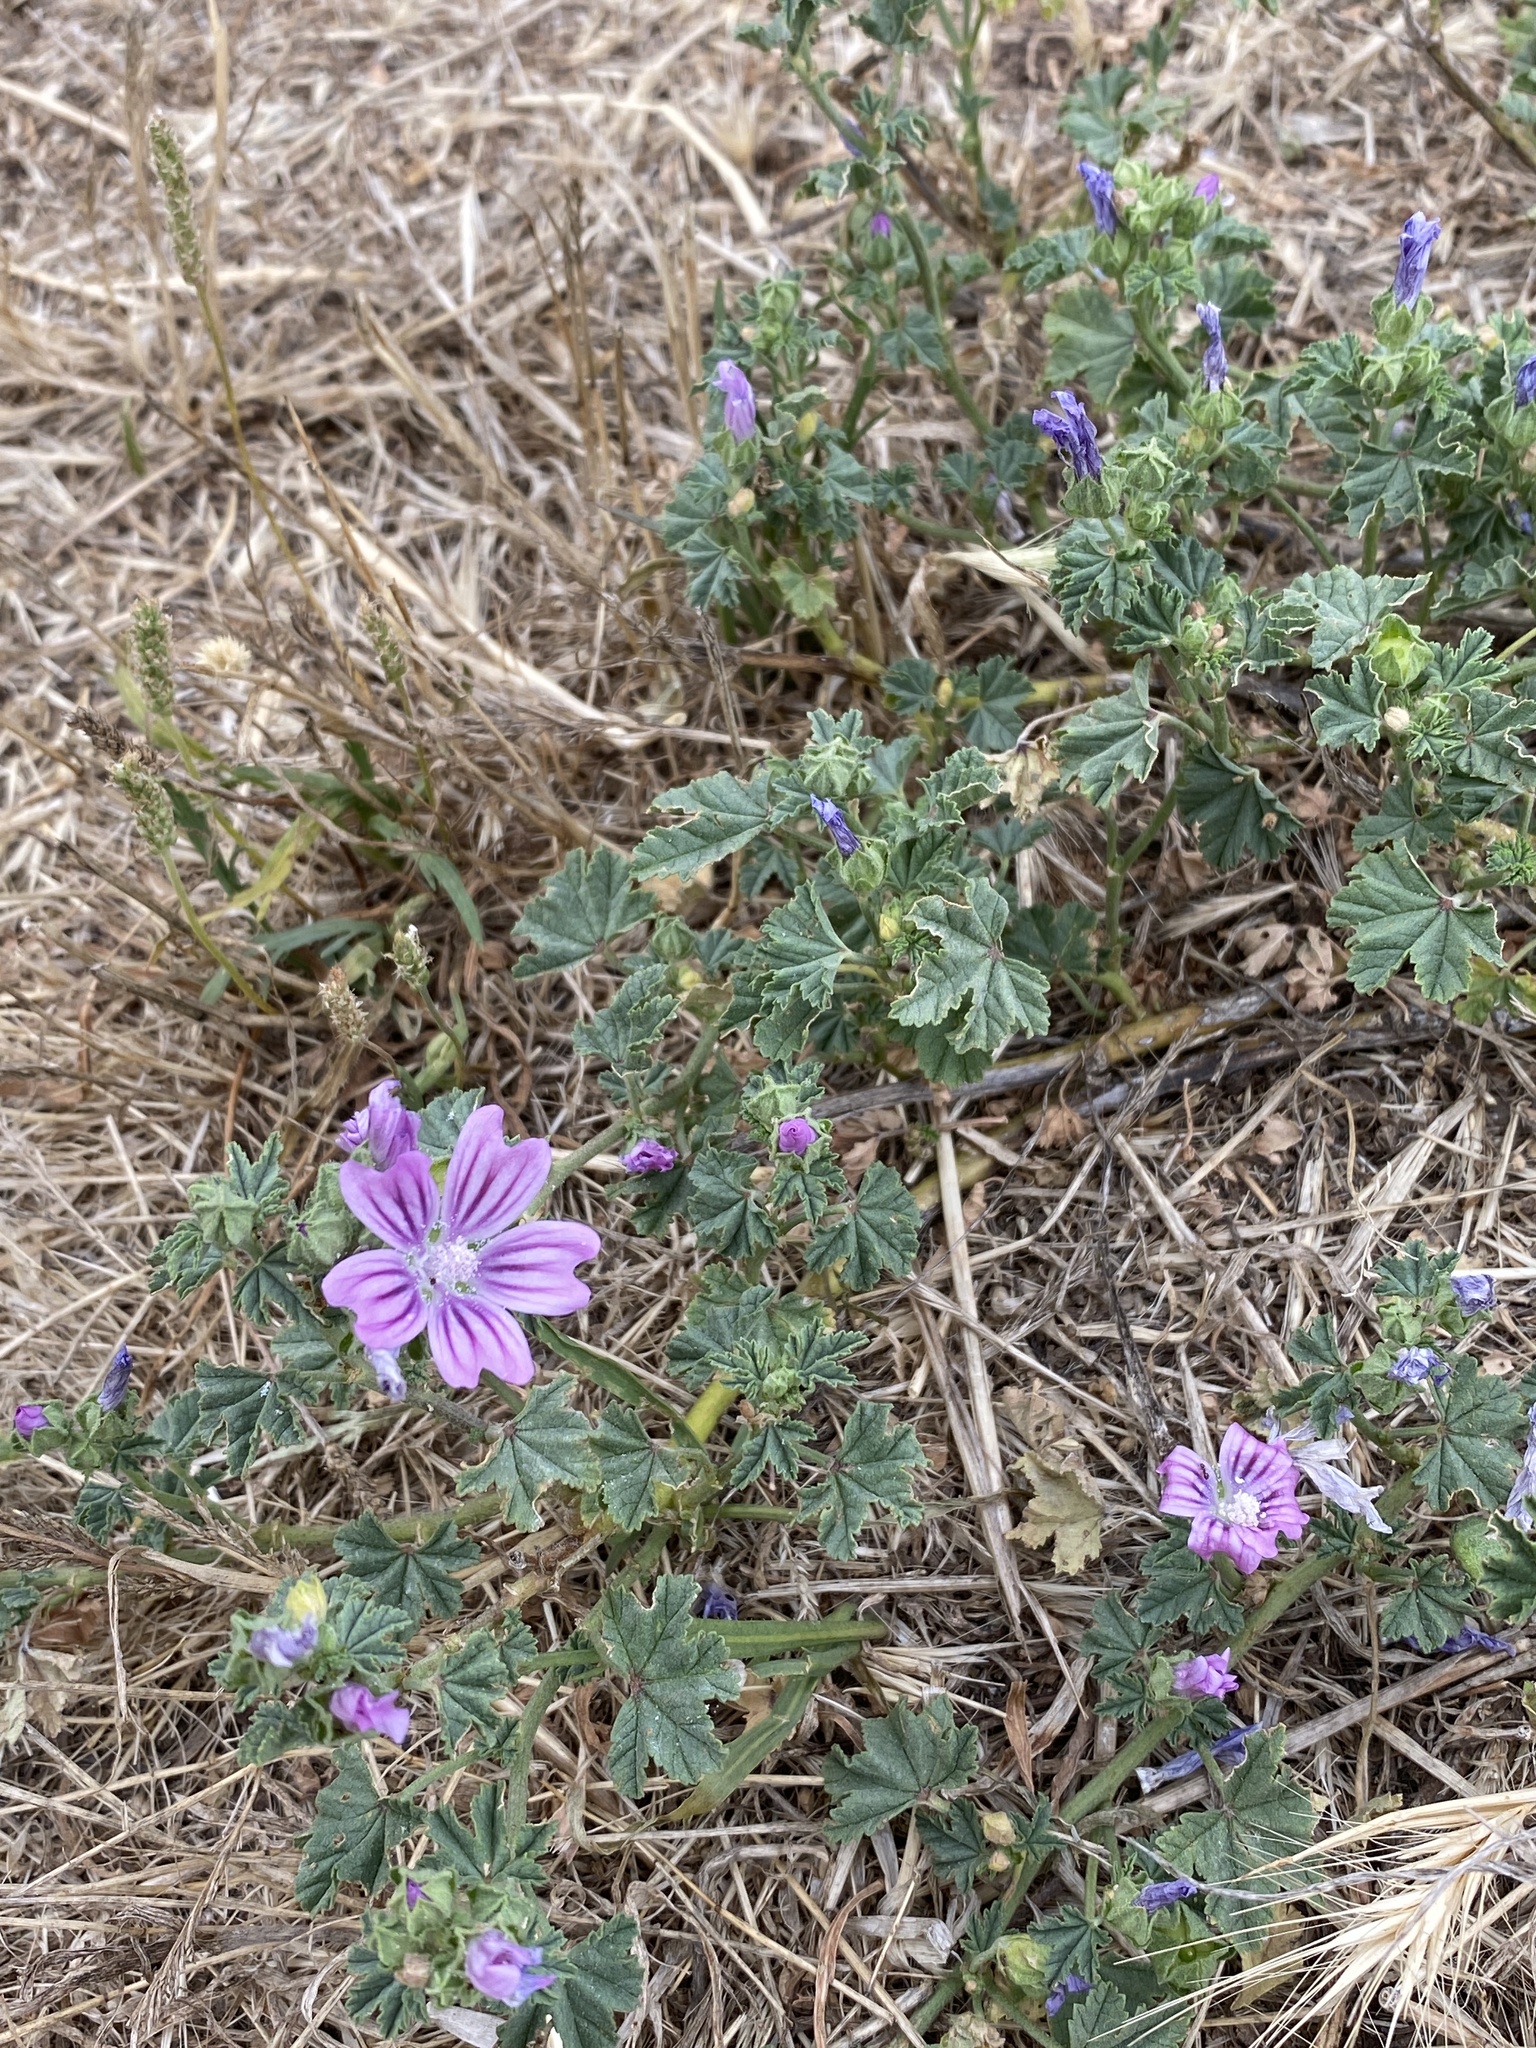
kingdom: Plantae
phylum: Tracheophyta
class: Magnoliopsida
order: Malvales
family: Malvaceae
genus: Malva
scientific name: Malva sylvestris
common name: Common mallow
